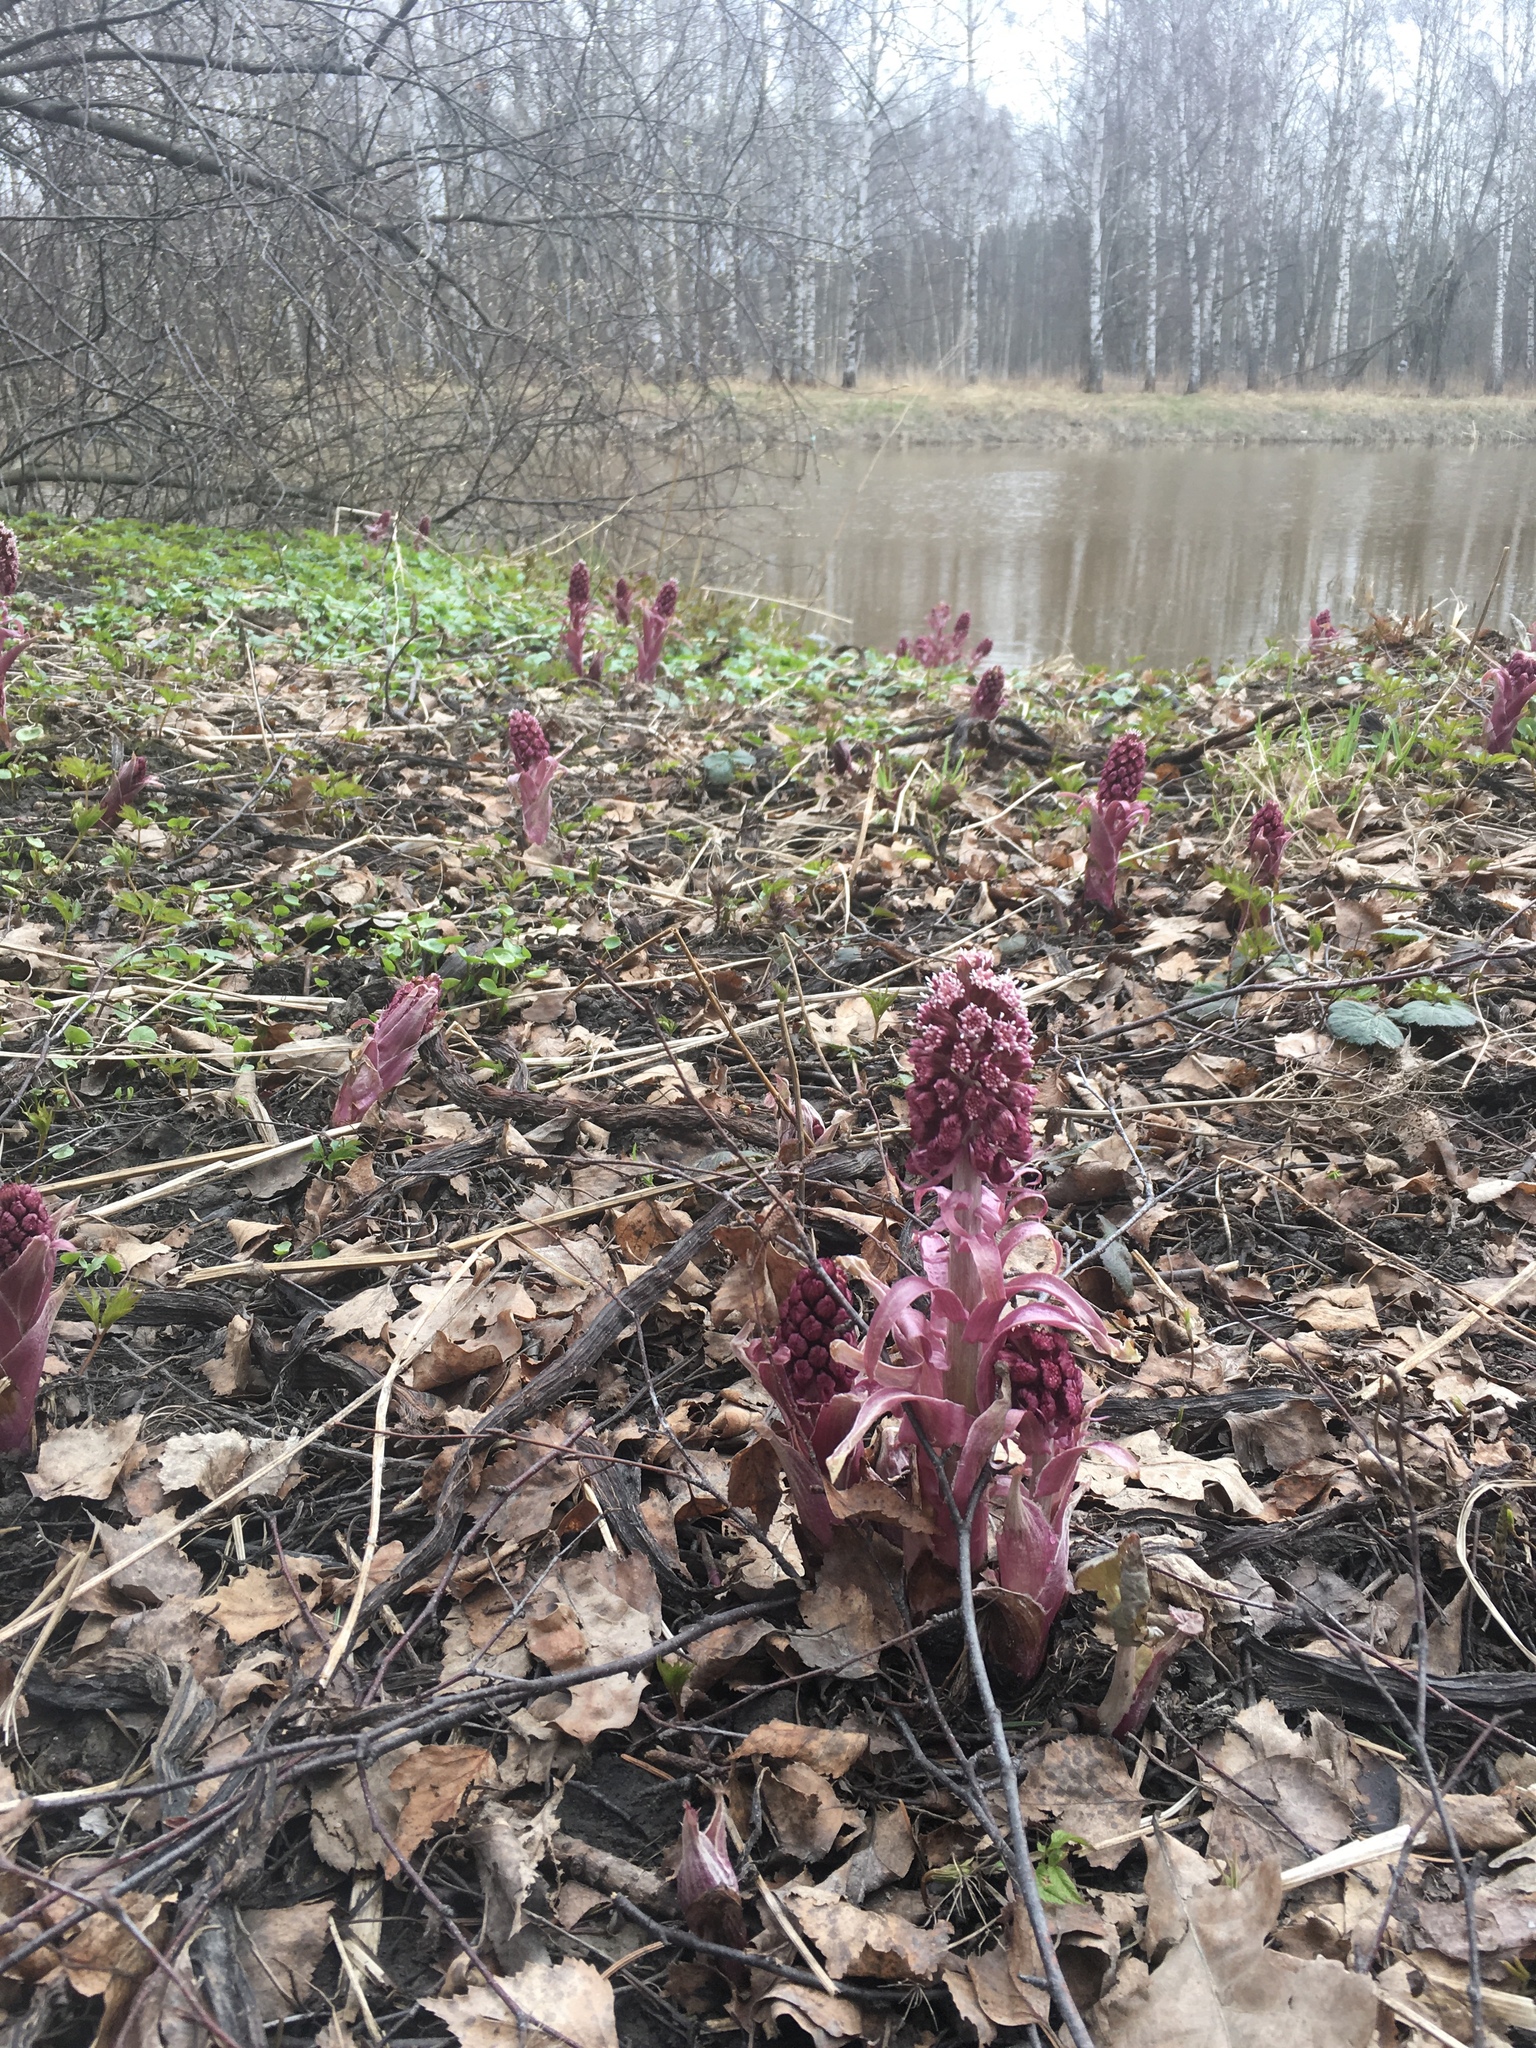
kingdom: Plantae
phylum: Tracheophyta
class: Magnoliopsida
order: Asterales
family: Asteraceae
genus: Petasites
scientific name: Petasites hybridus
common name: Butterbur
